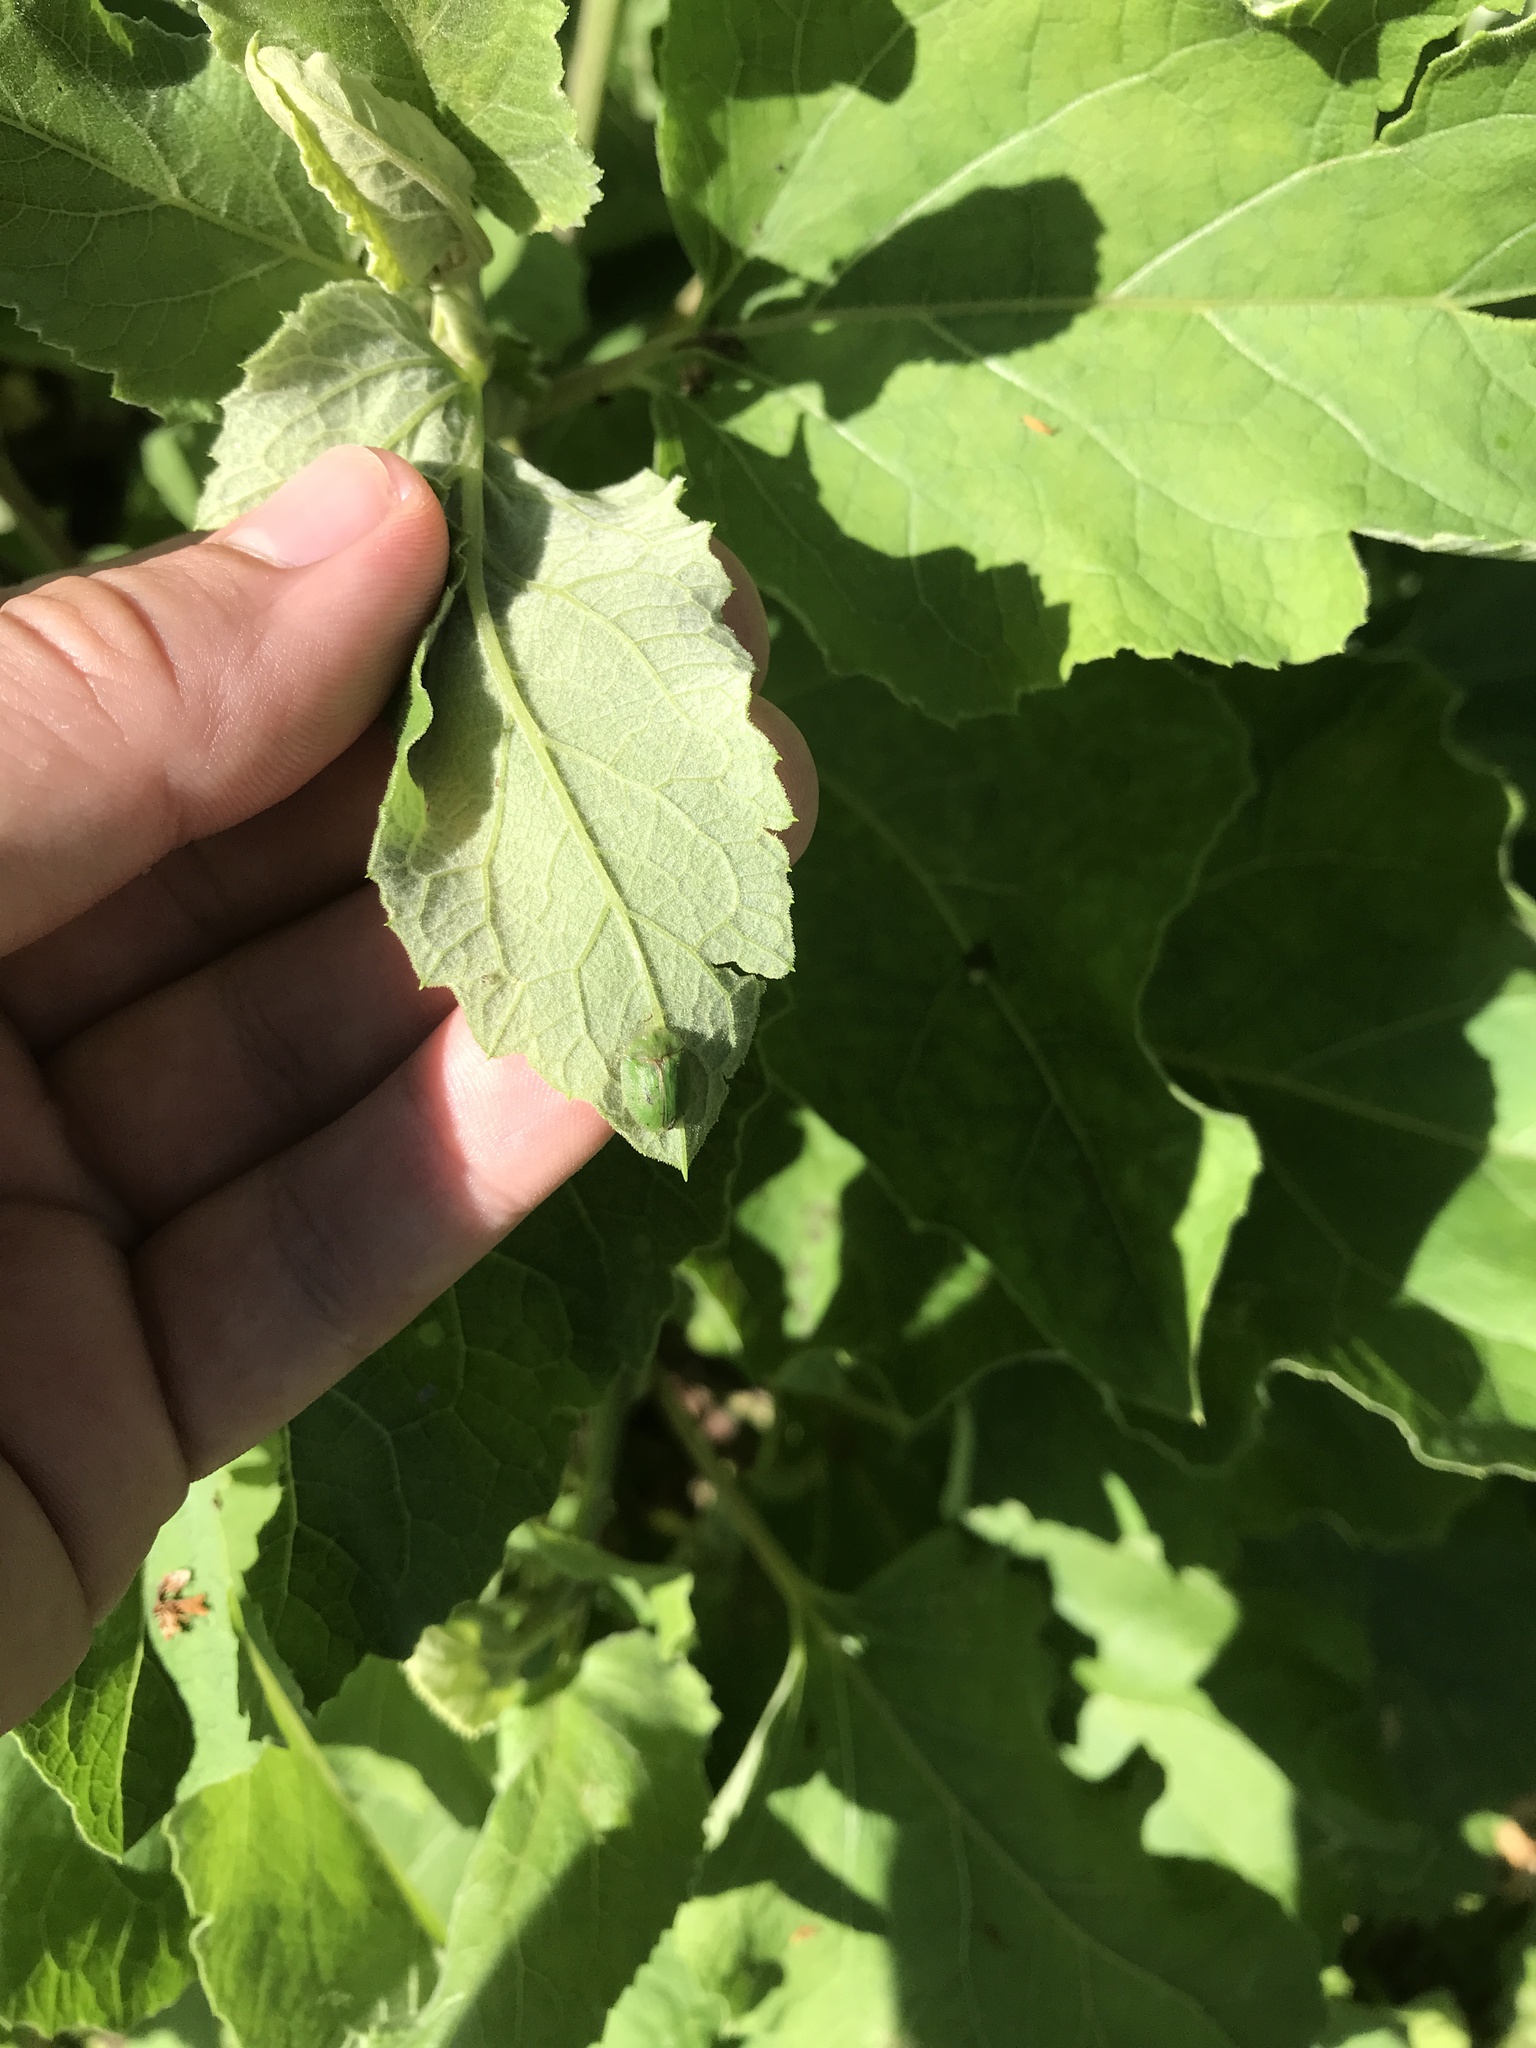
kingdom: Animalia
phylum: Arthropoda
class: Insecta
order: Coleoptera
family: Chrysomelidae
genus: Cassida
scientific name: Cassida rubiginosa
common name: Thistle tortoise beetle
